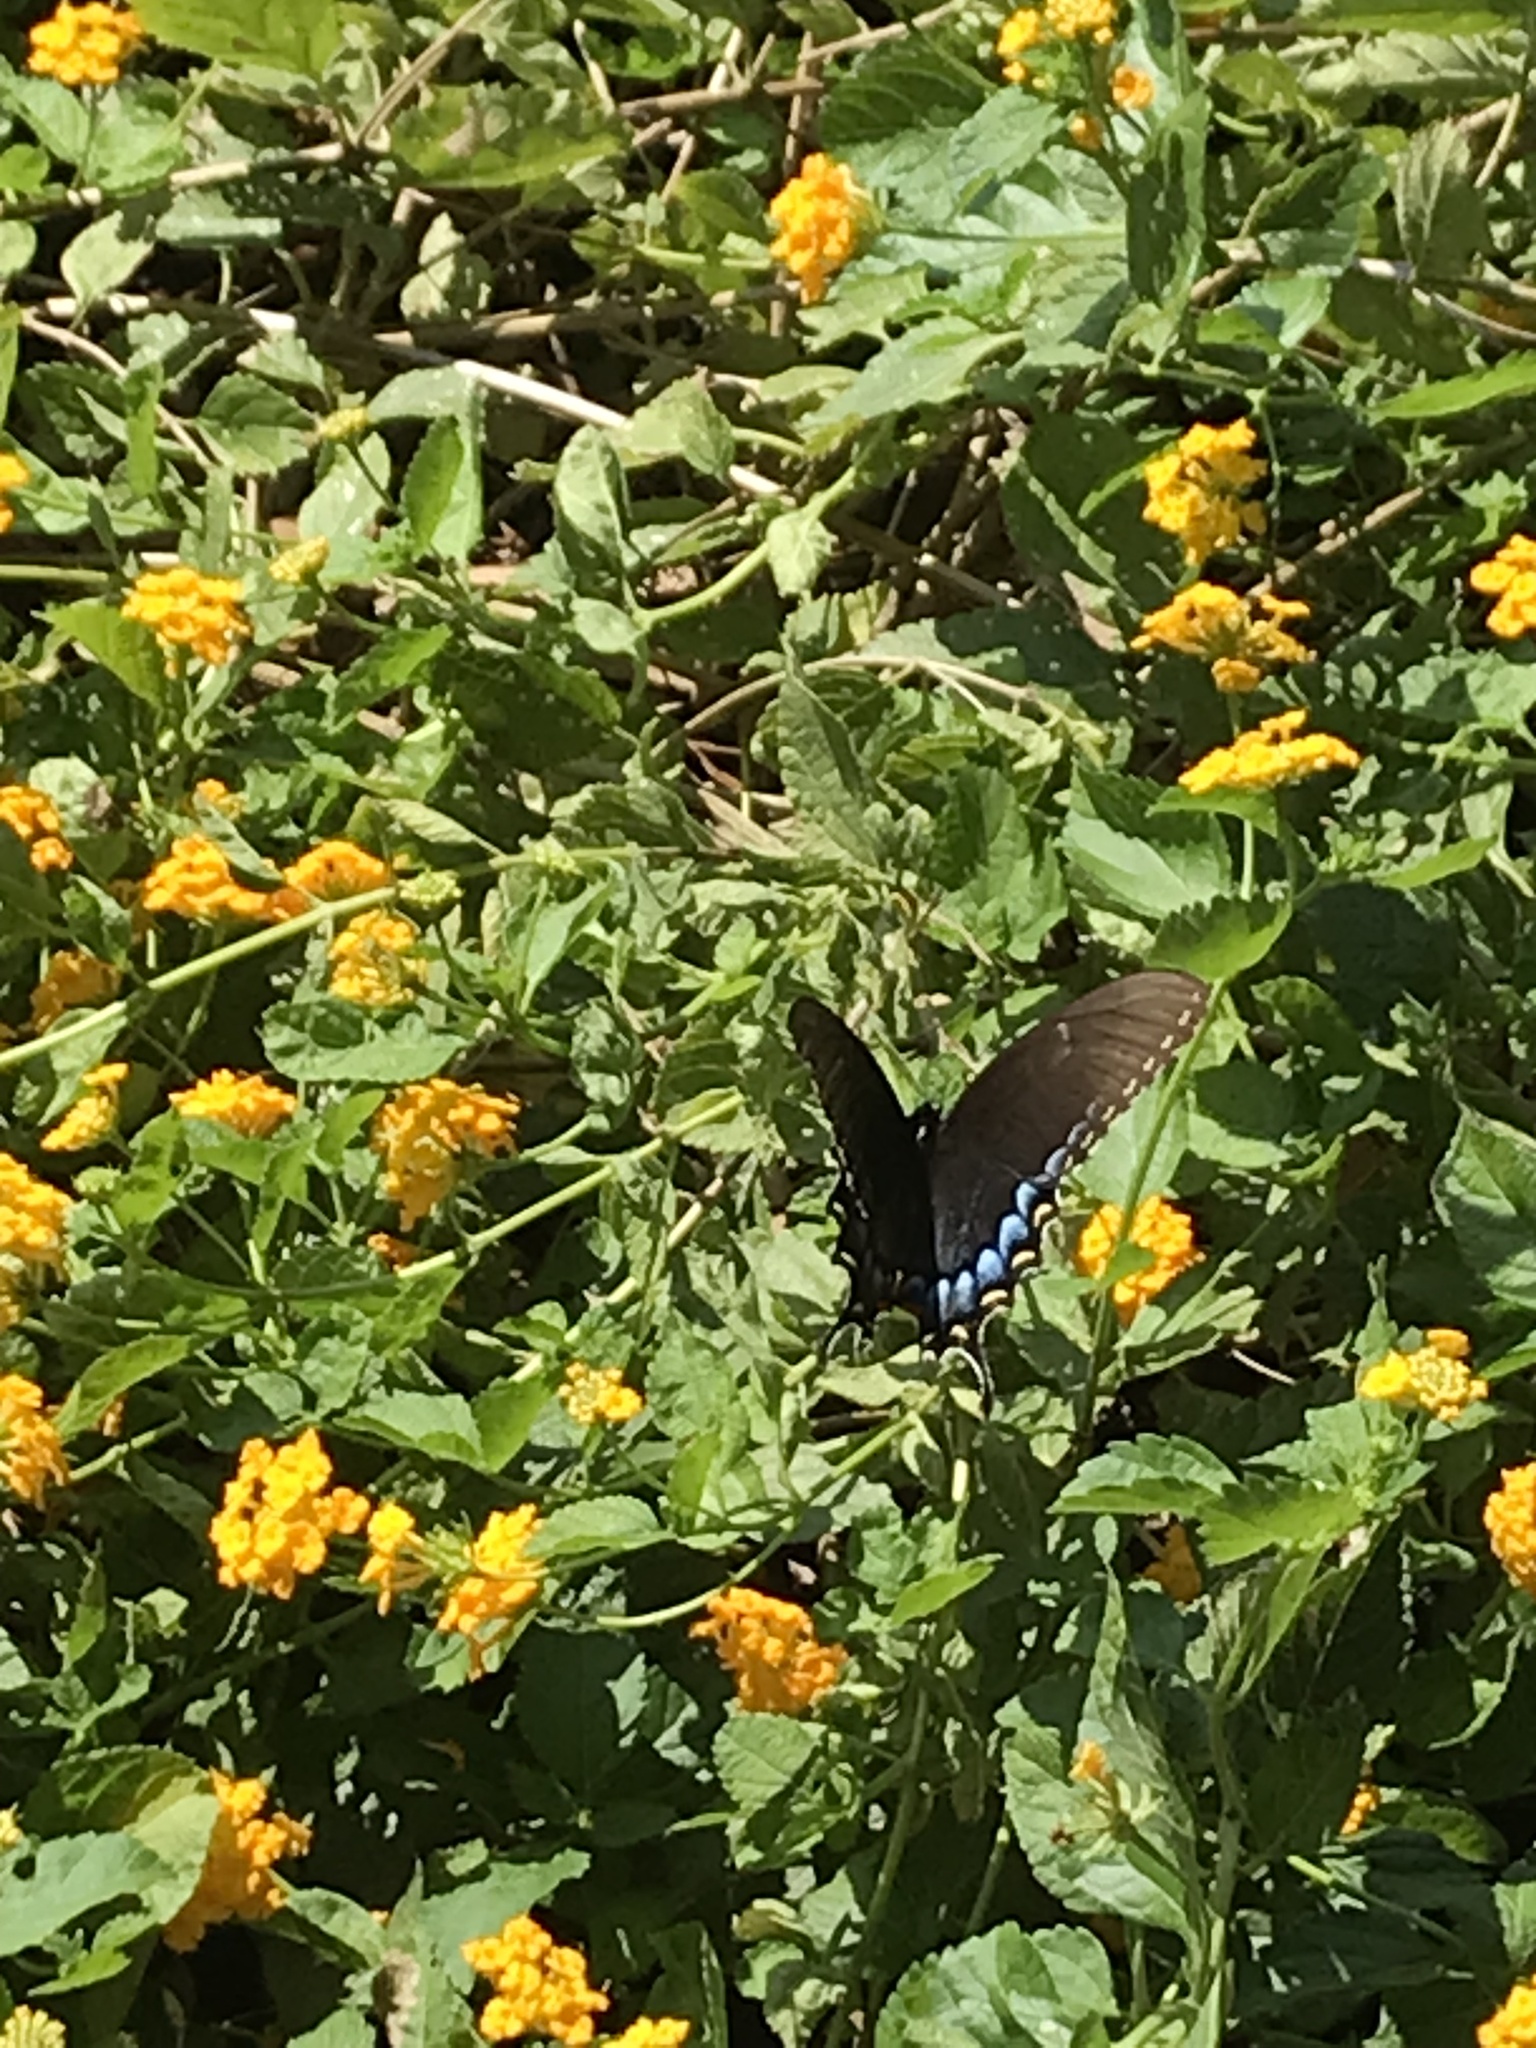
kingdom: Animalia
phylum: Arthropoda
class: Insecta
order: Lepidoptera
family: Papilionidae
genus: Papilio
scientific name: Papilio glaucus
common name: Tiger swallowtail
